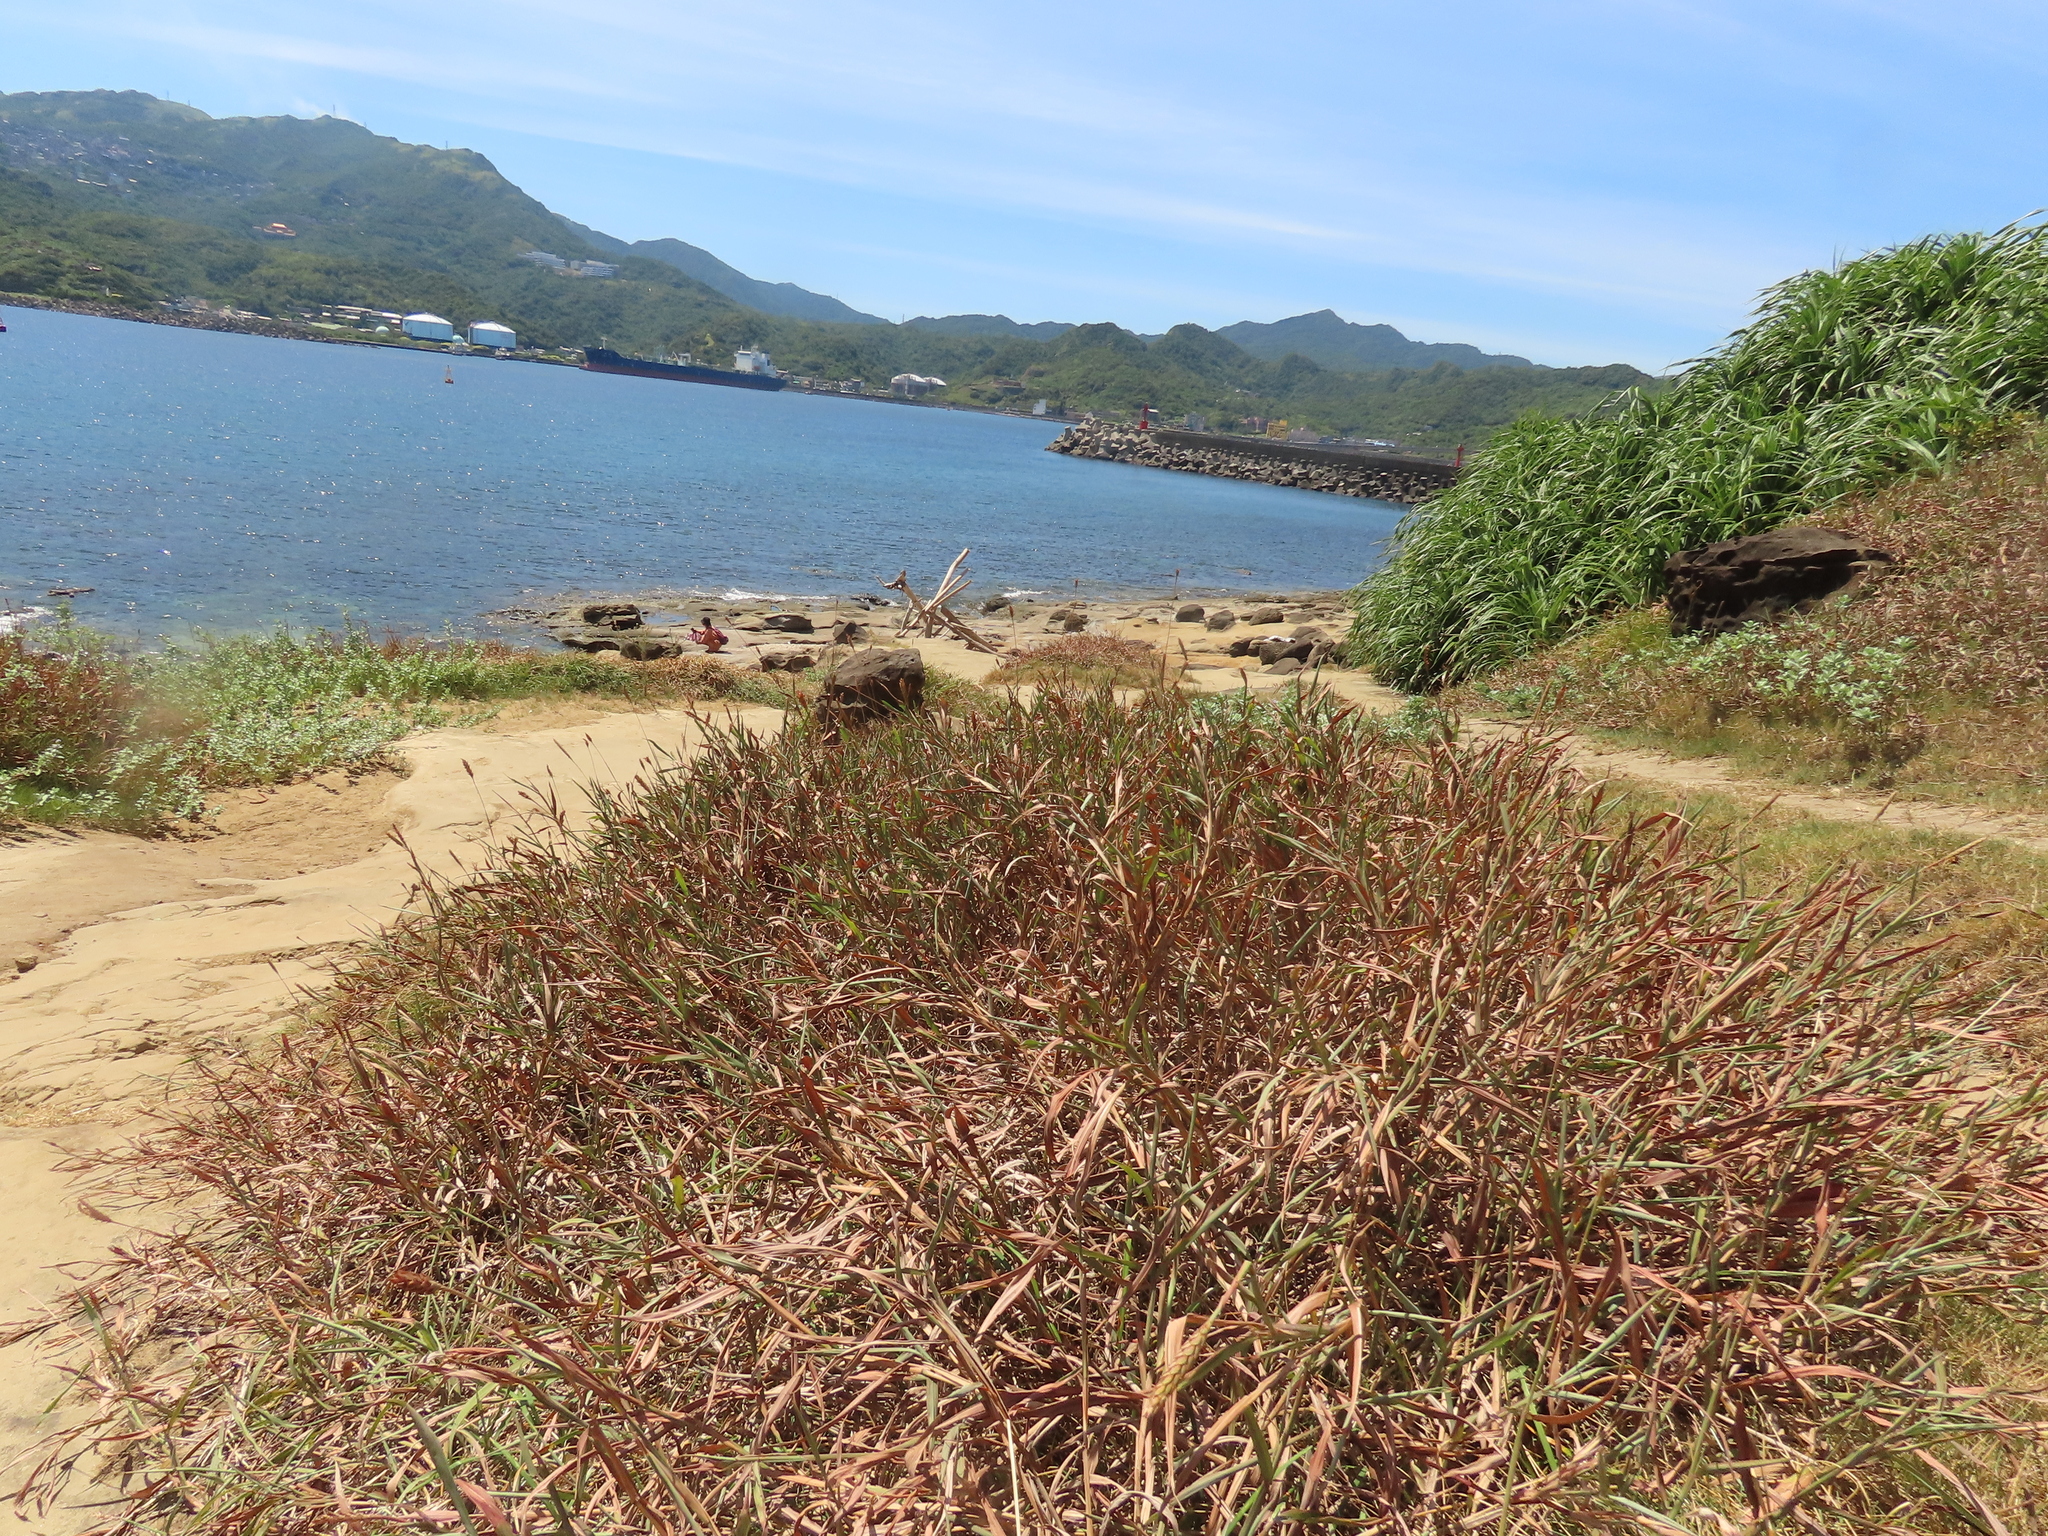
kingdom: Plantae
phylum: Tracheophyta
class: Liliopsida
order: Poales
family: Poaceae
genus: Ischaemum
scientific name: Ischaemum aristatum
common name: Toco grass
